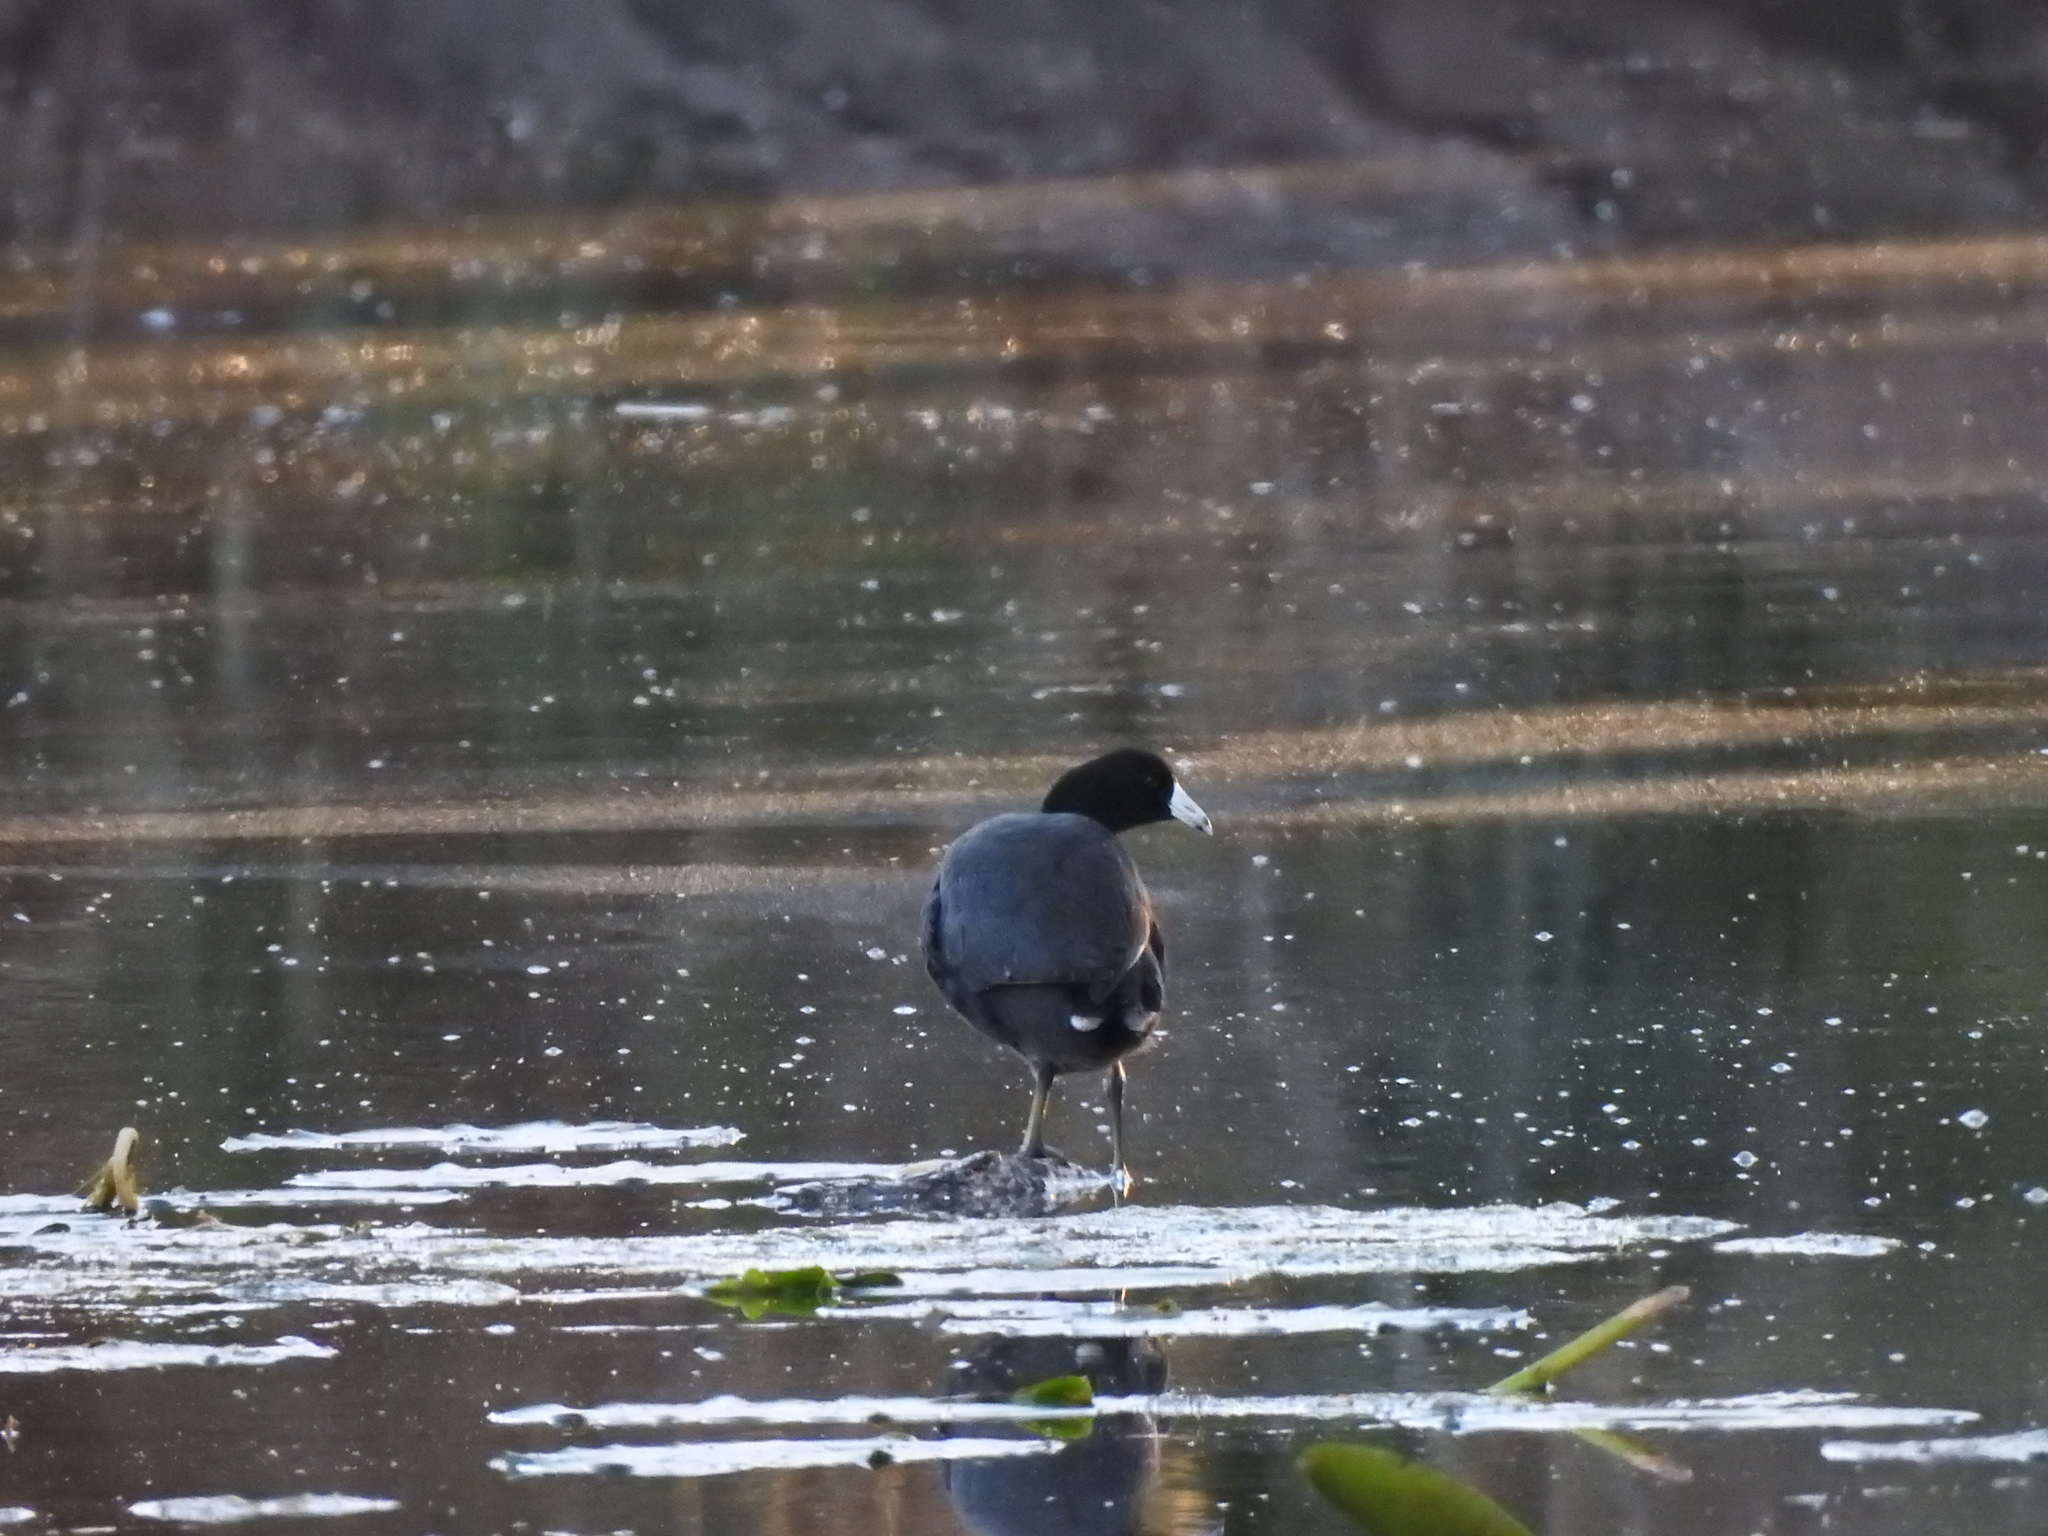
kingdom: Animalia
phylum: Chordata
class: Aves
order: Gruiformes
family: Rallidae
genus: Fulica
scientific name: Fulica americana
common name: American coot
